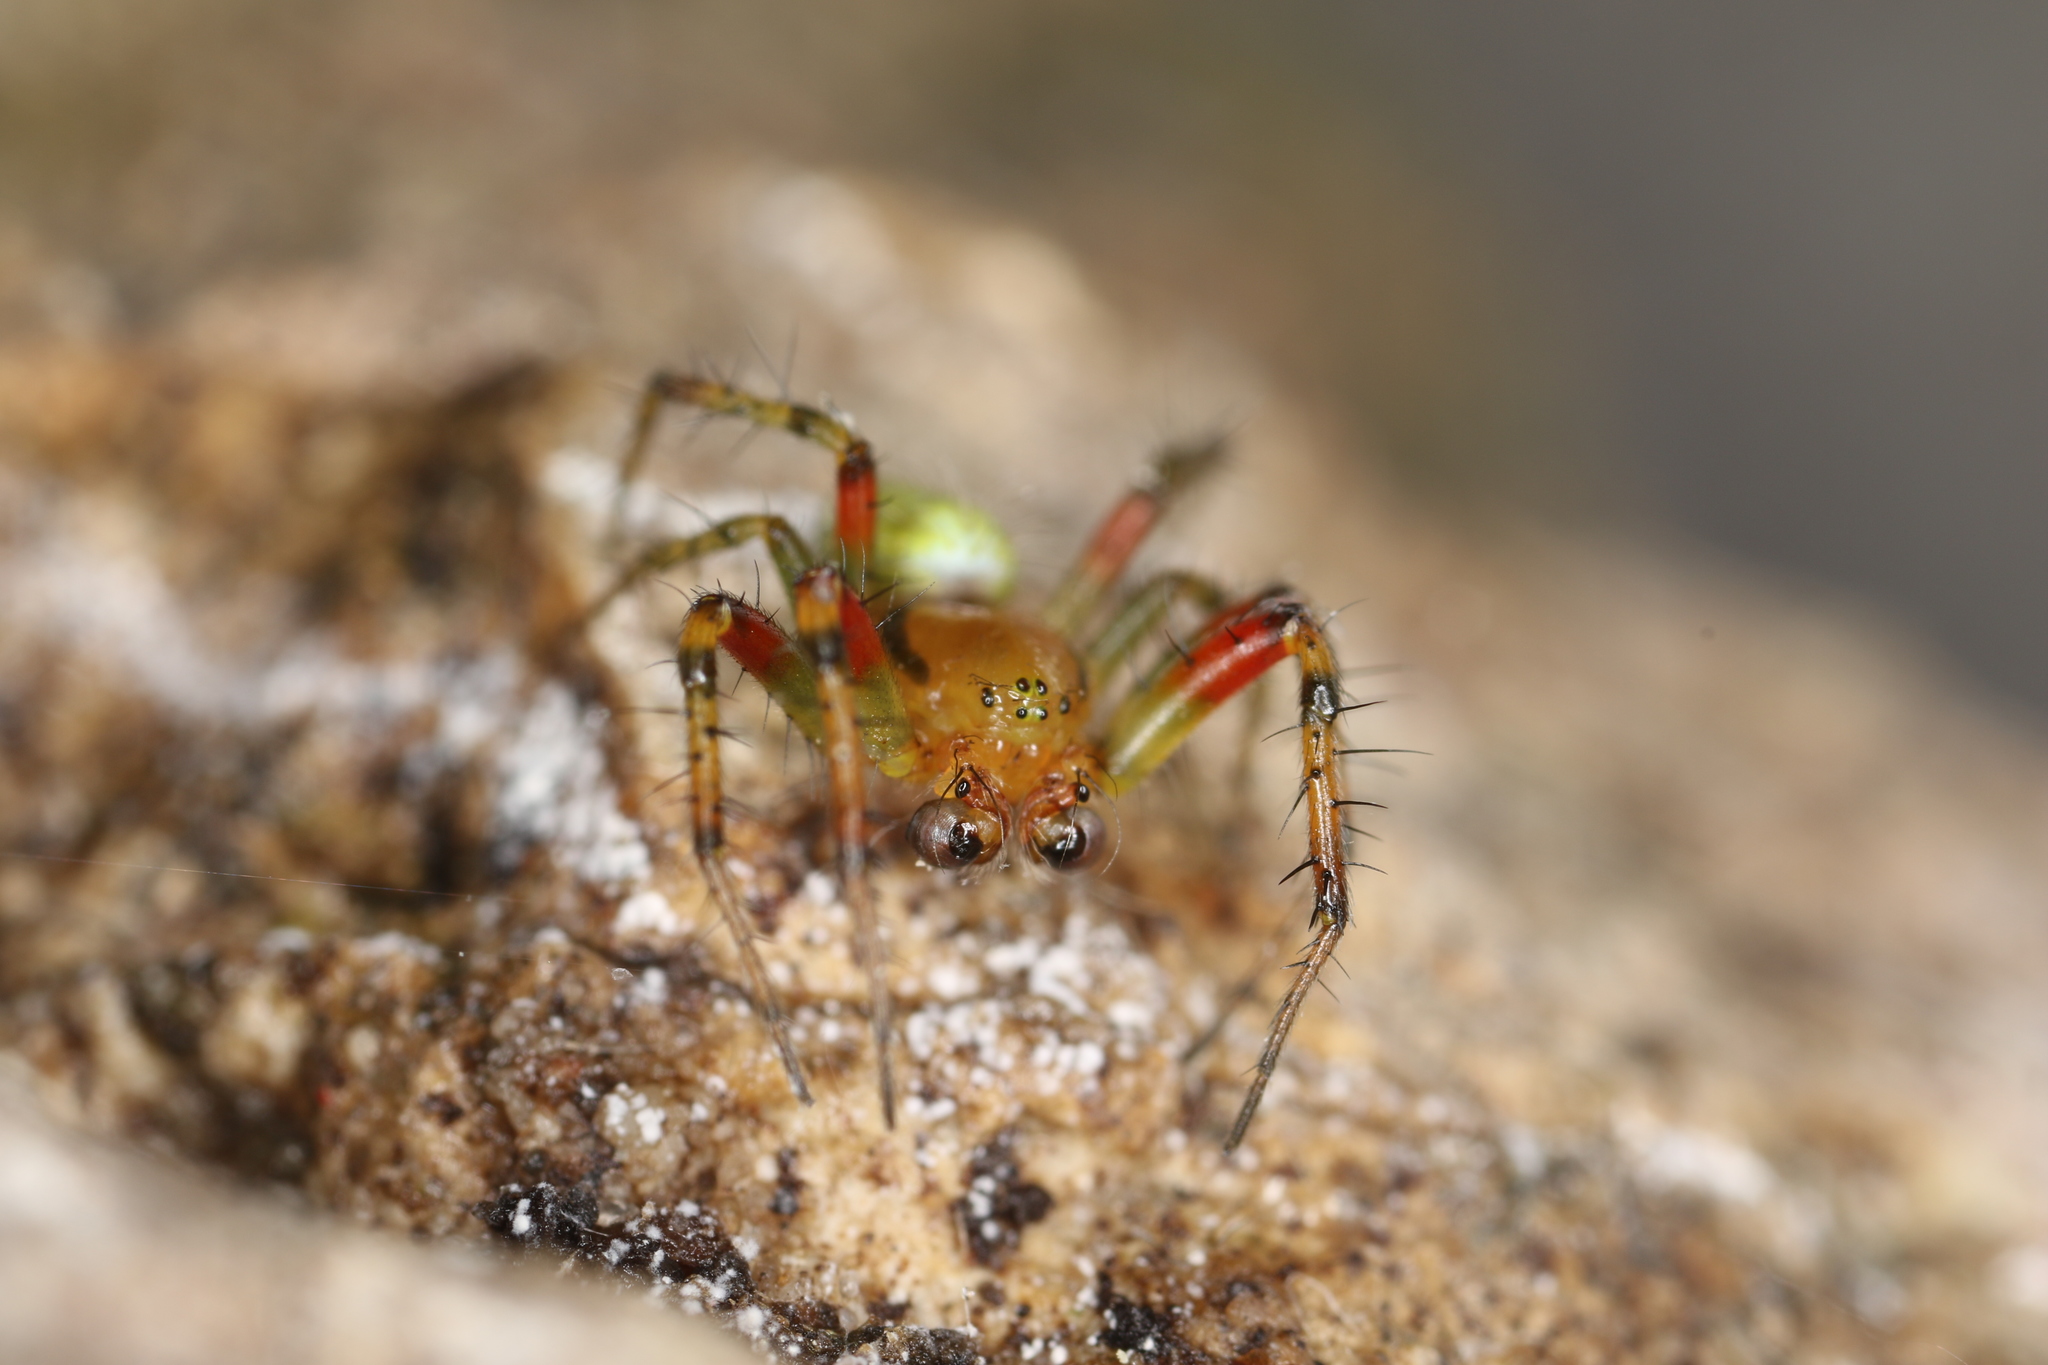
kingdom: Animalia
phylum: Arthropoda
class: Arachnida
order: Araneae
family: Araneidae
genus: Araniella
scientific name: Araniella cucurbitina
